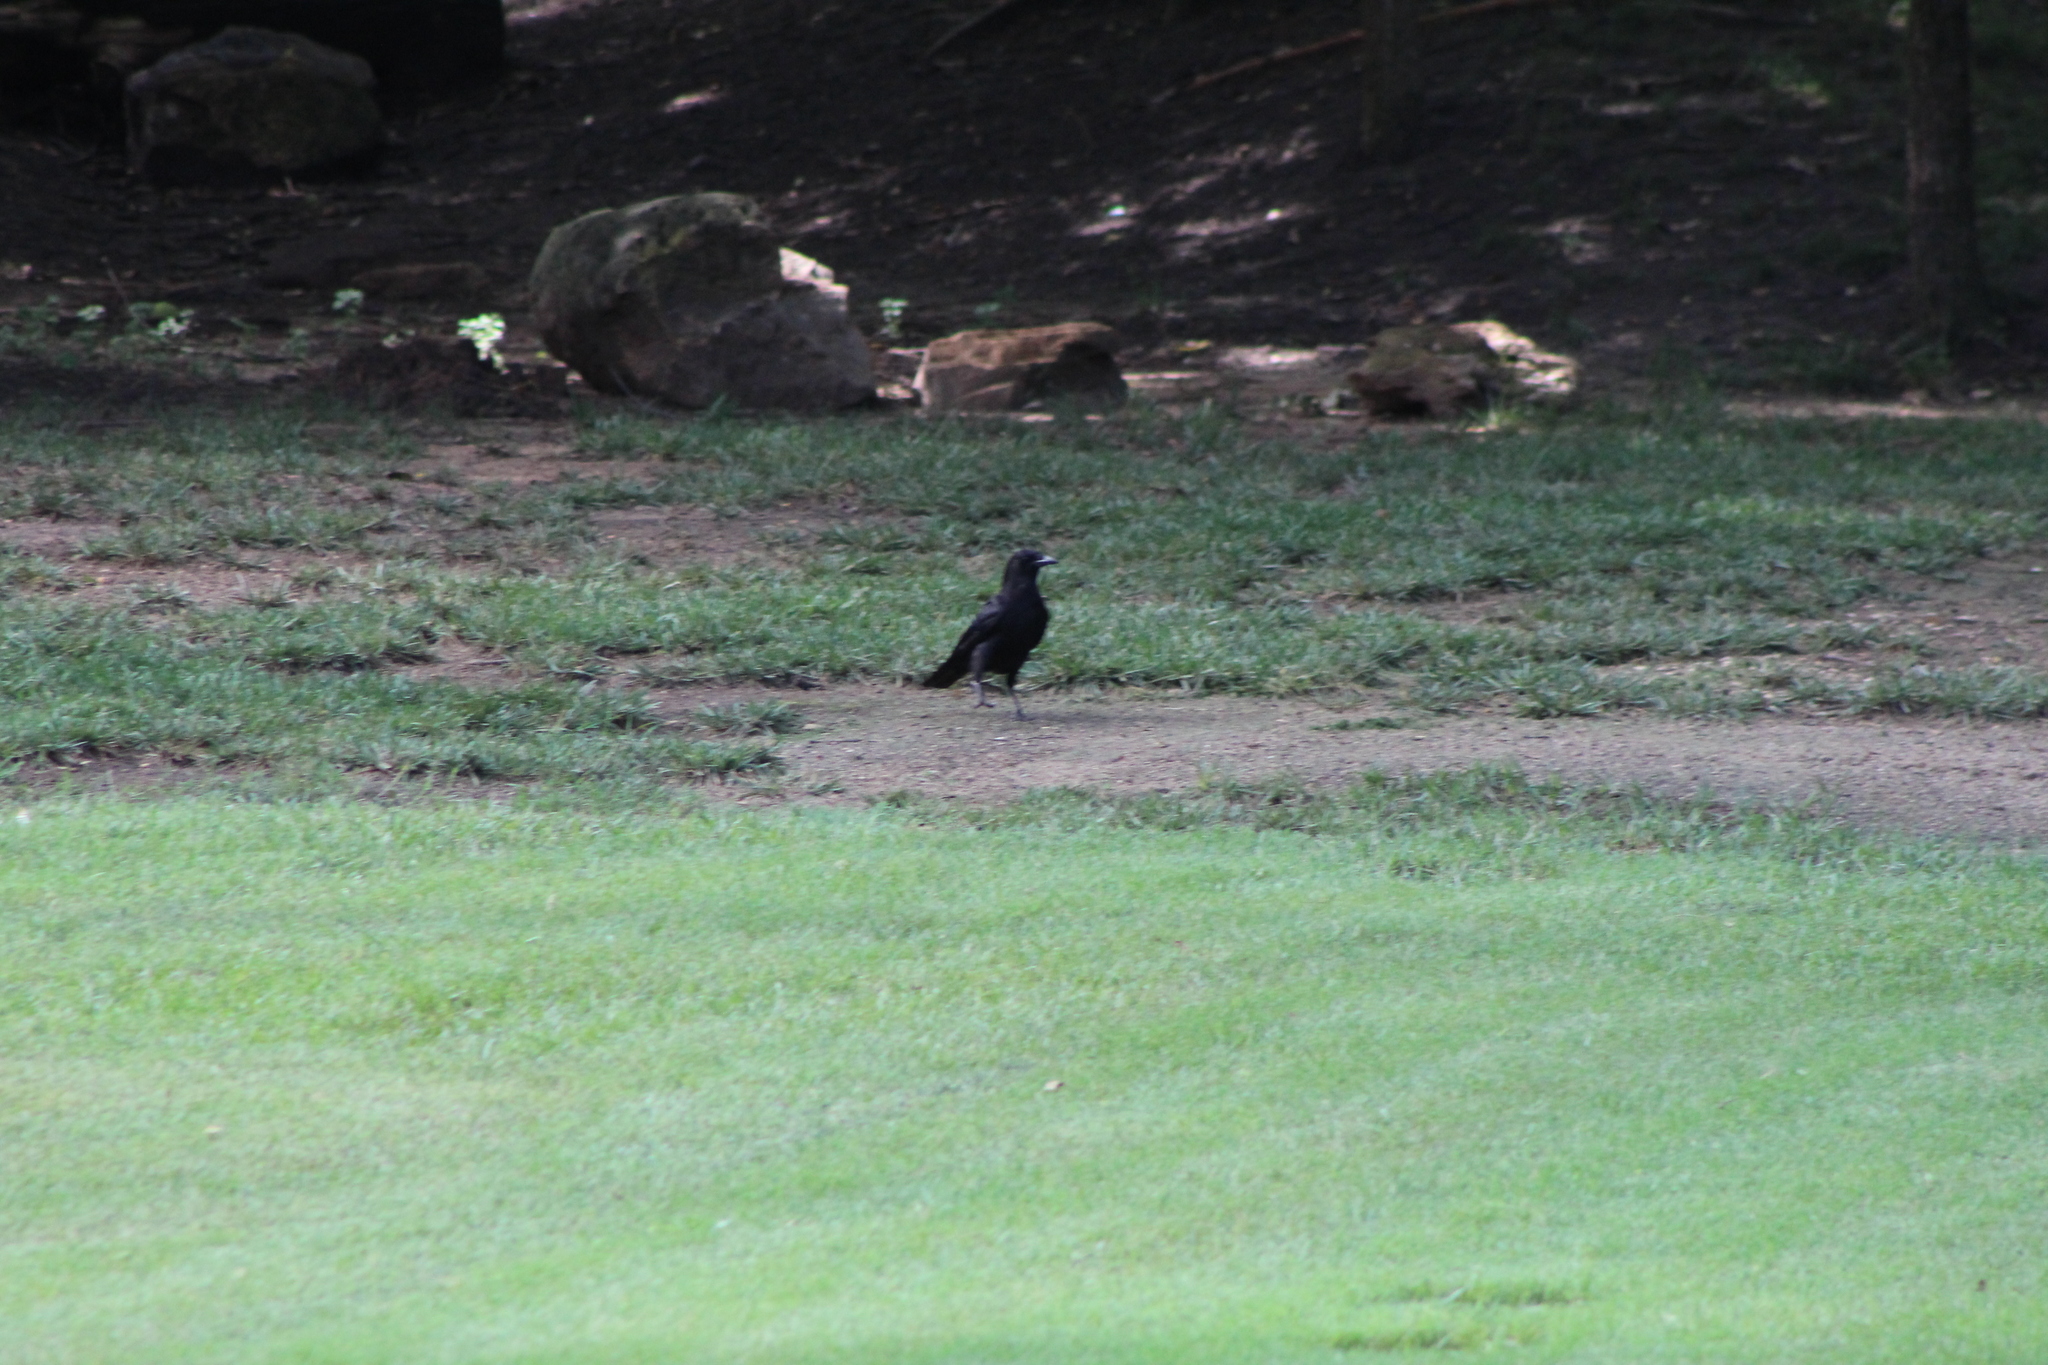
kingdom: Animalia
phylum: Chordata
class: Aves
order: Passeriformes
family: Corvidae
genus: Corvus
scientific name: Corvus brachyrhynchos
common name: American crow
